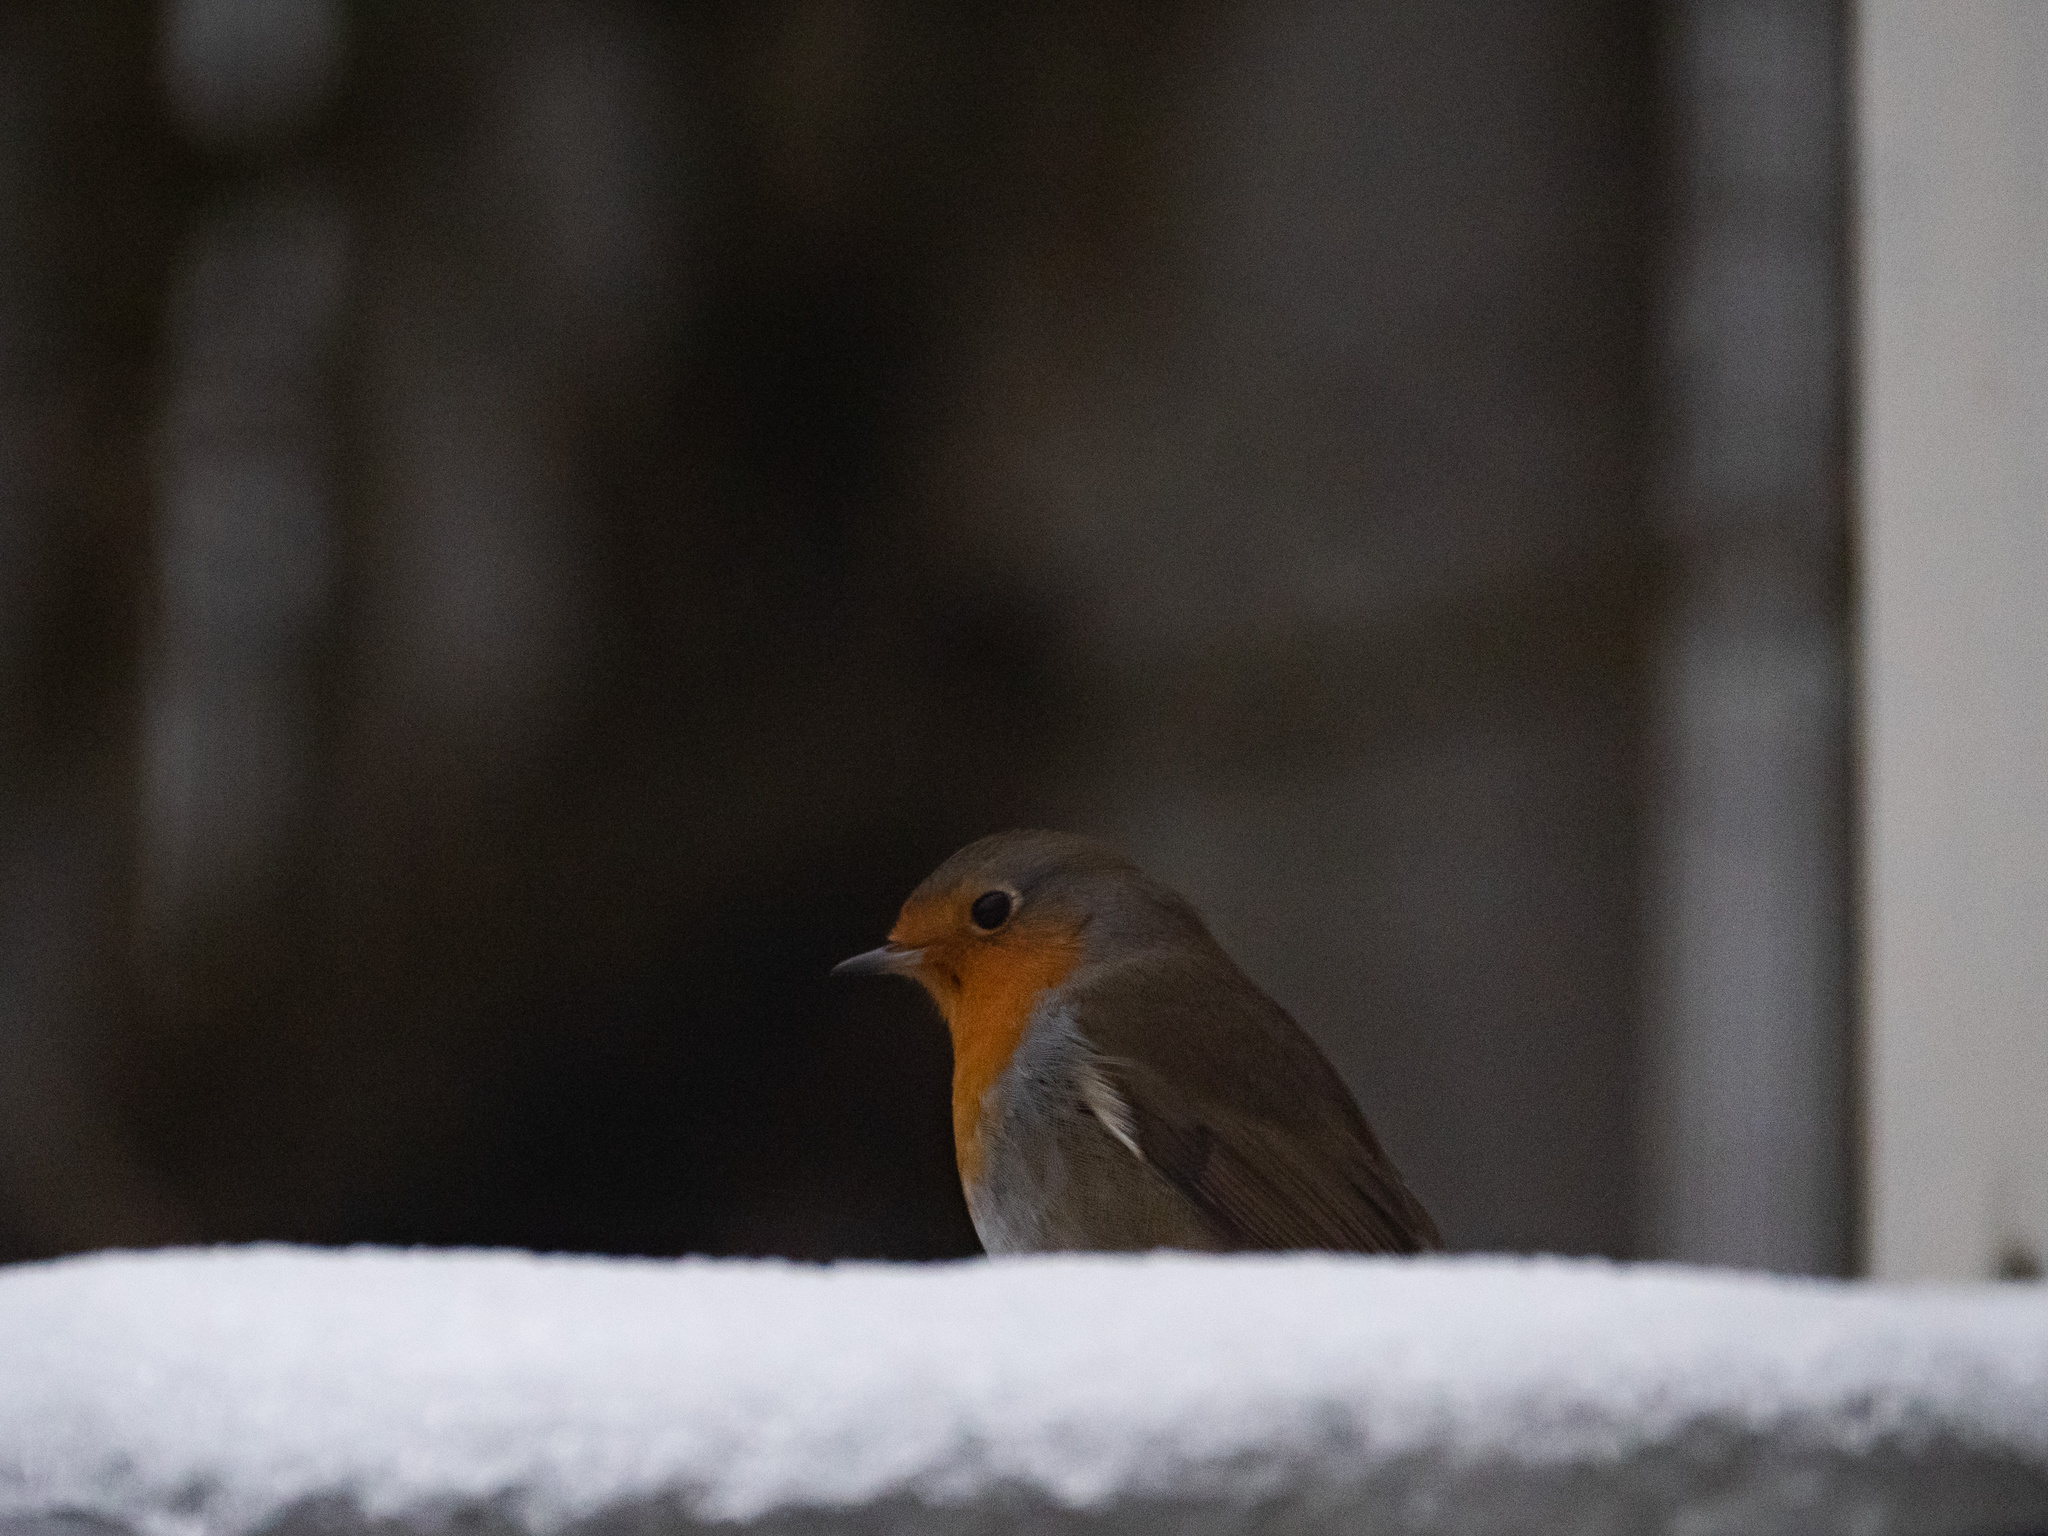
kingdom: Animalia
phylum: Chordata
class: Aves
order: Passeriformes
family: Muscicapidae
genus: Erithacus
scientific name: Erithacus rubecula
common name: European robin
